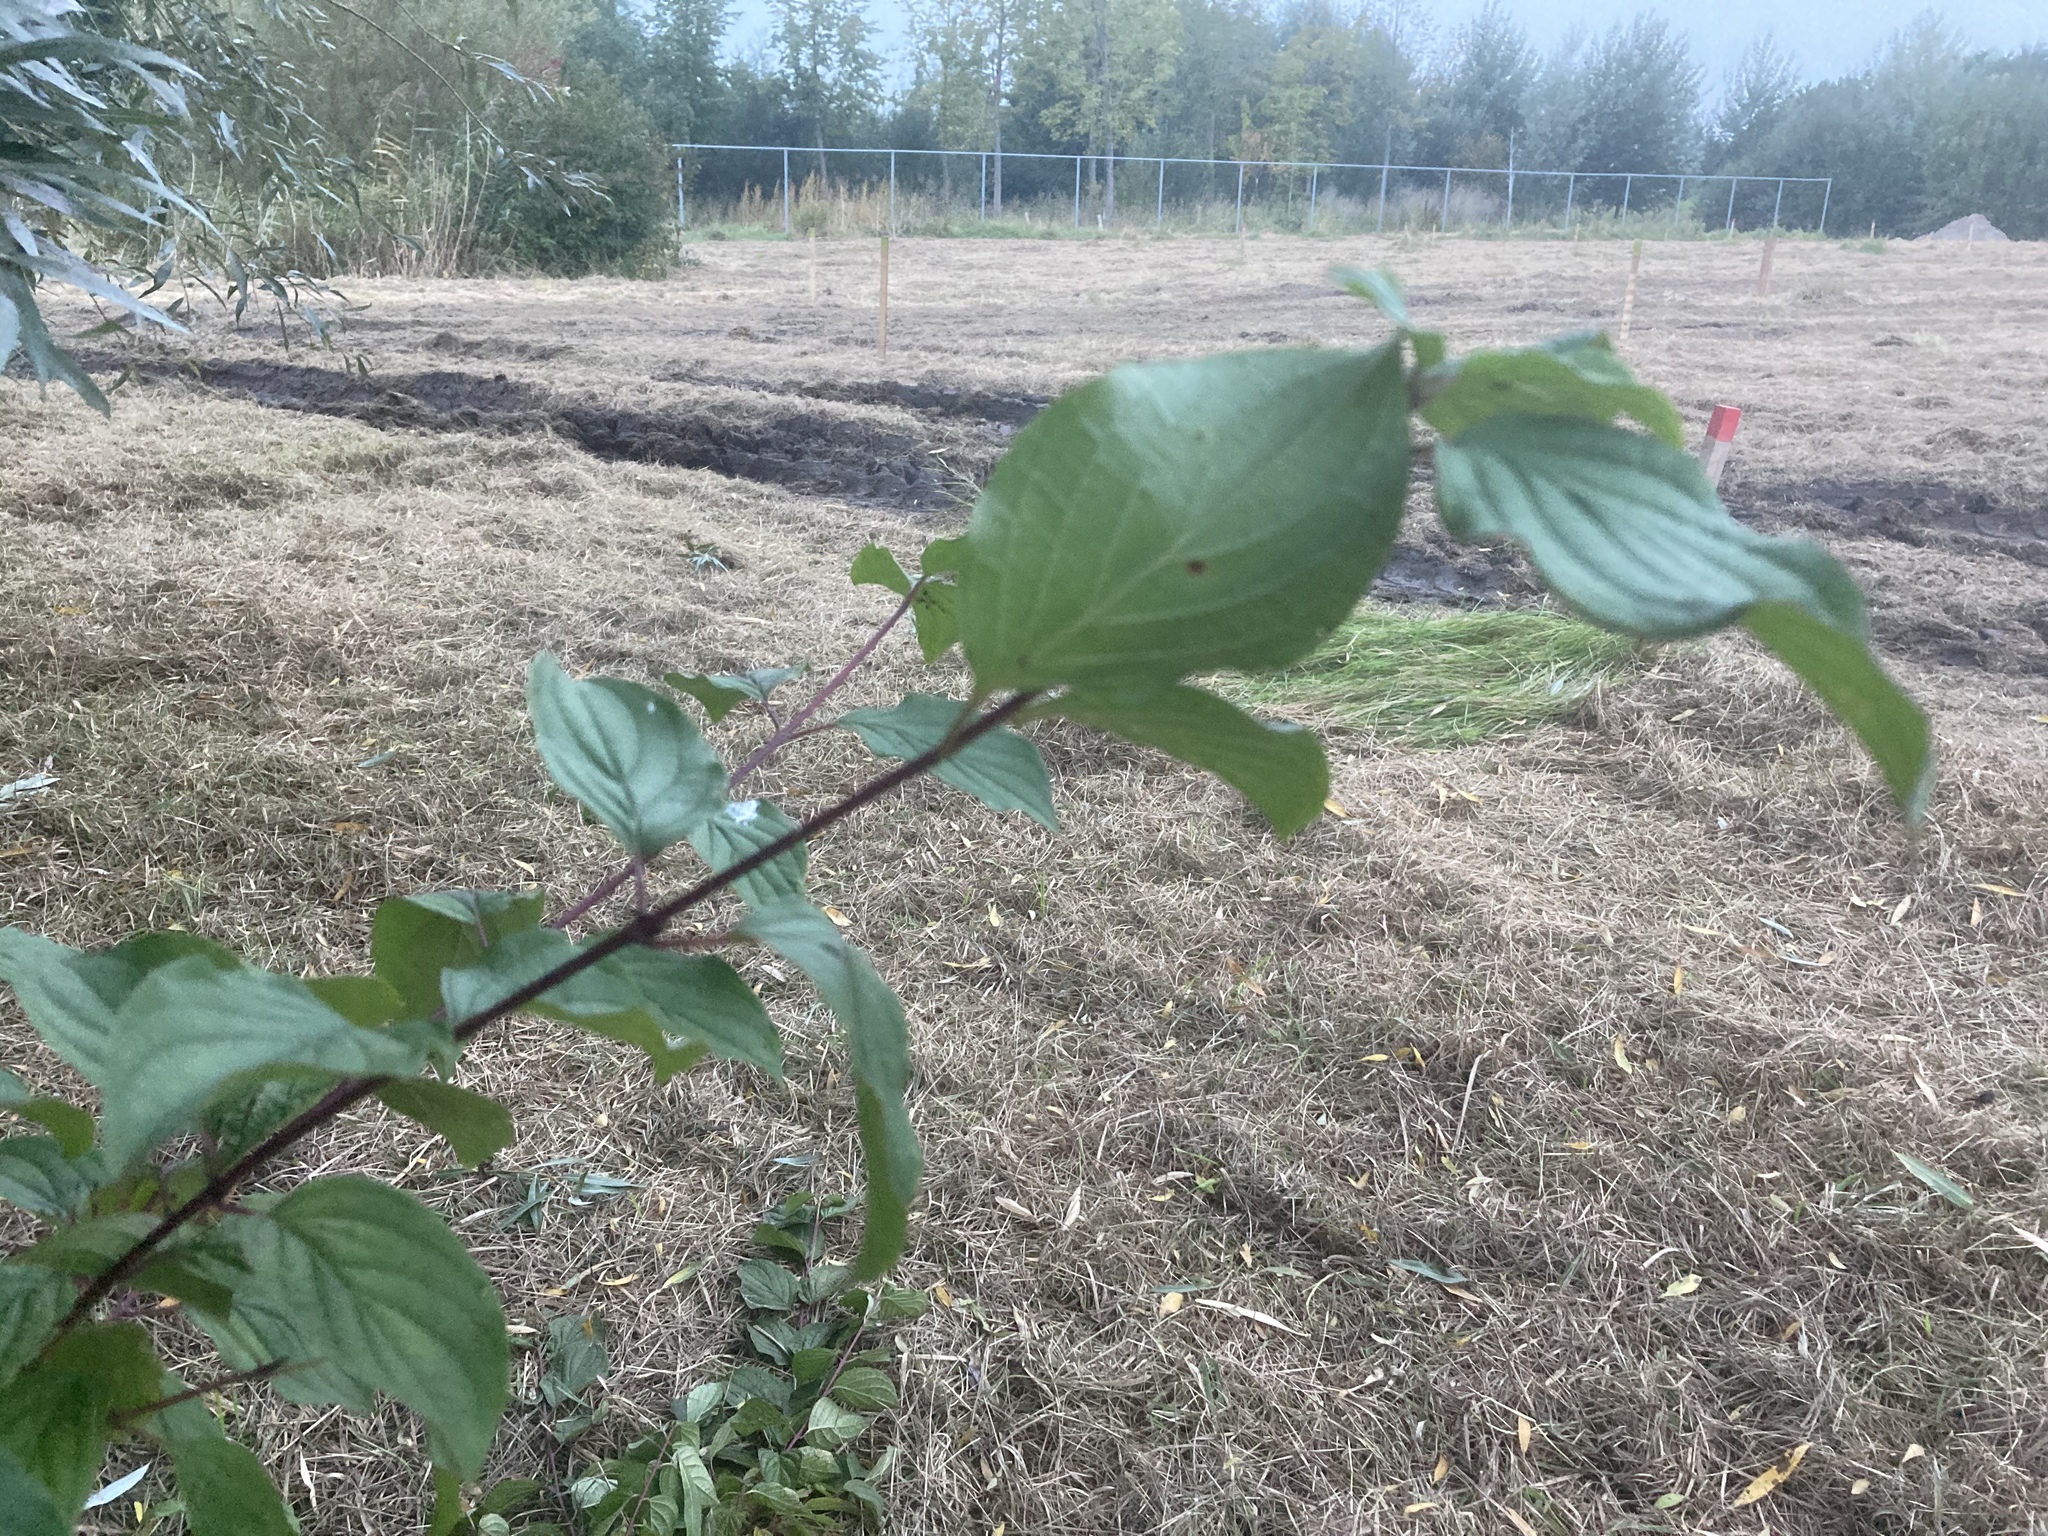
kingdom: Plantae
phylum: Tracheophyta
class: Magnoliopsida
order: Cornales
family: Cornaceae
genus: Cornus
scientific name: Cornus sanguinea
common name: Dogwood
